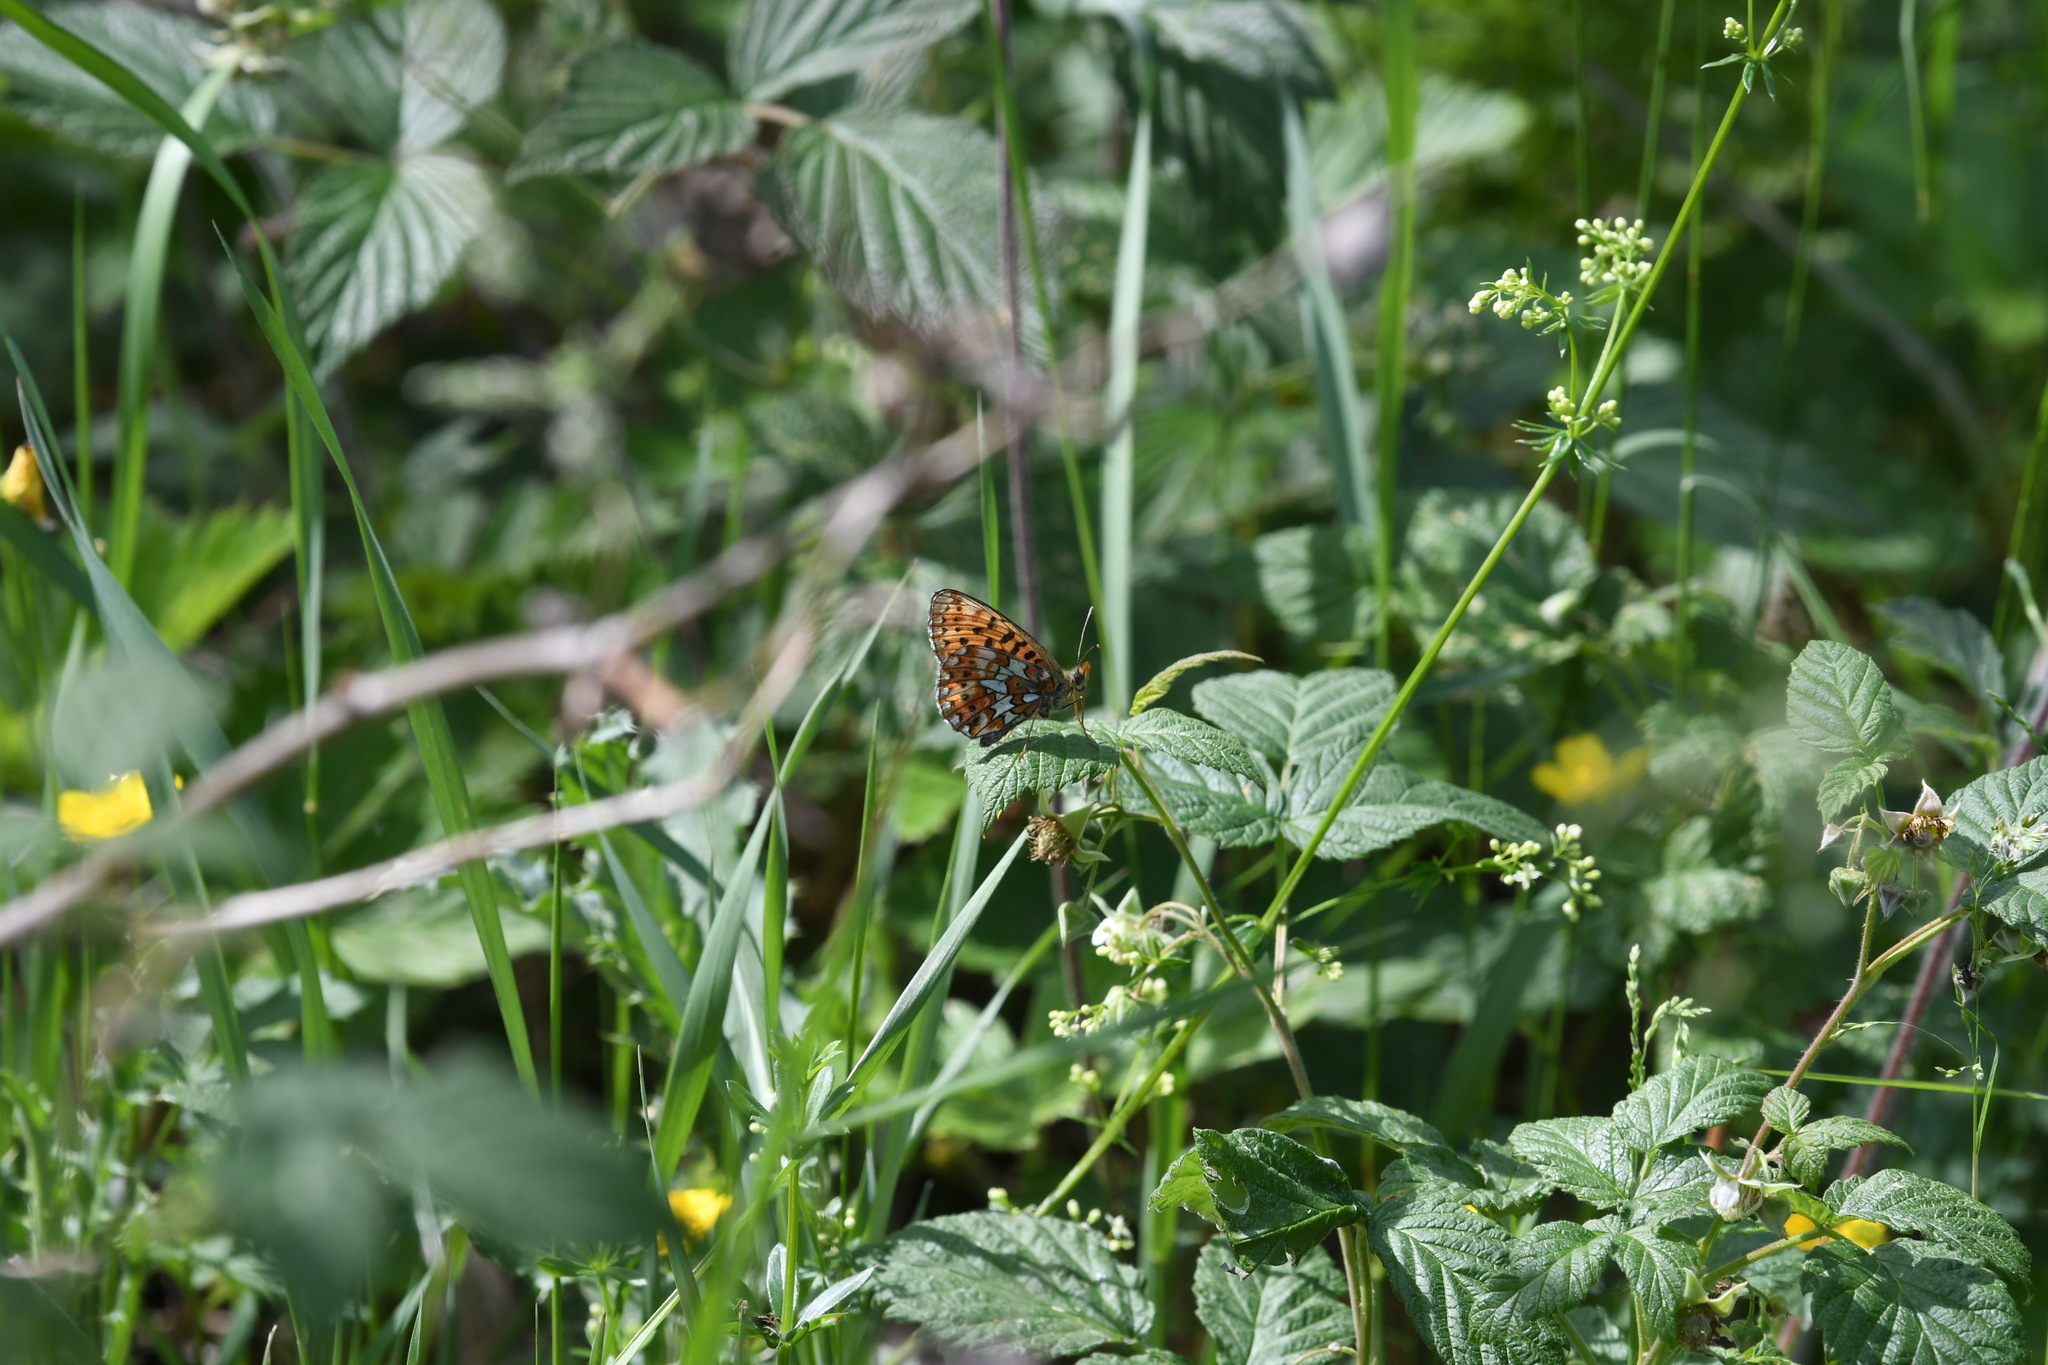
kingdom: Animalia
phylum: Arthropoda
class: Insecta
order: Lepidoptera
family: Nymphalidae
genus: Clossiana
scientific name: Clossiana euphrosyne
